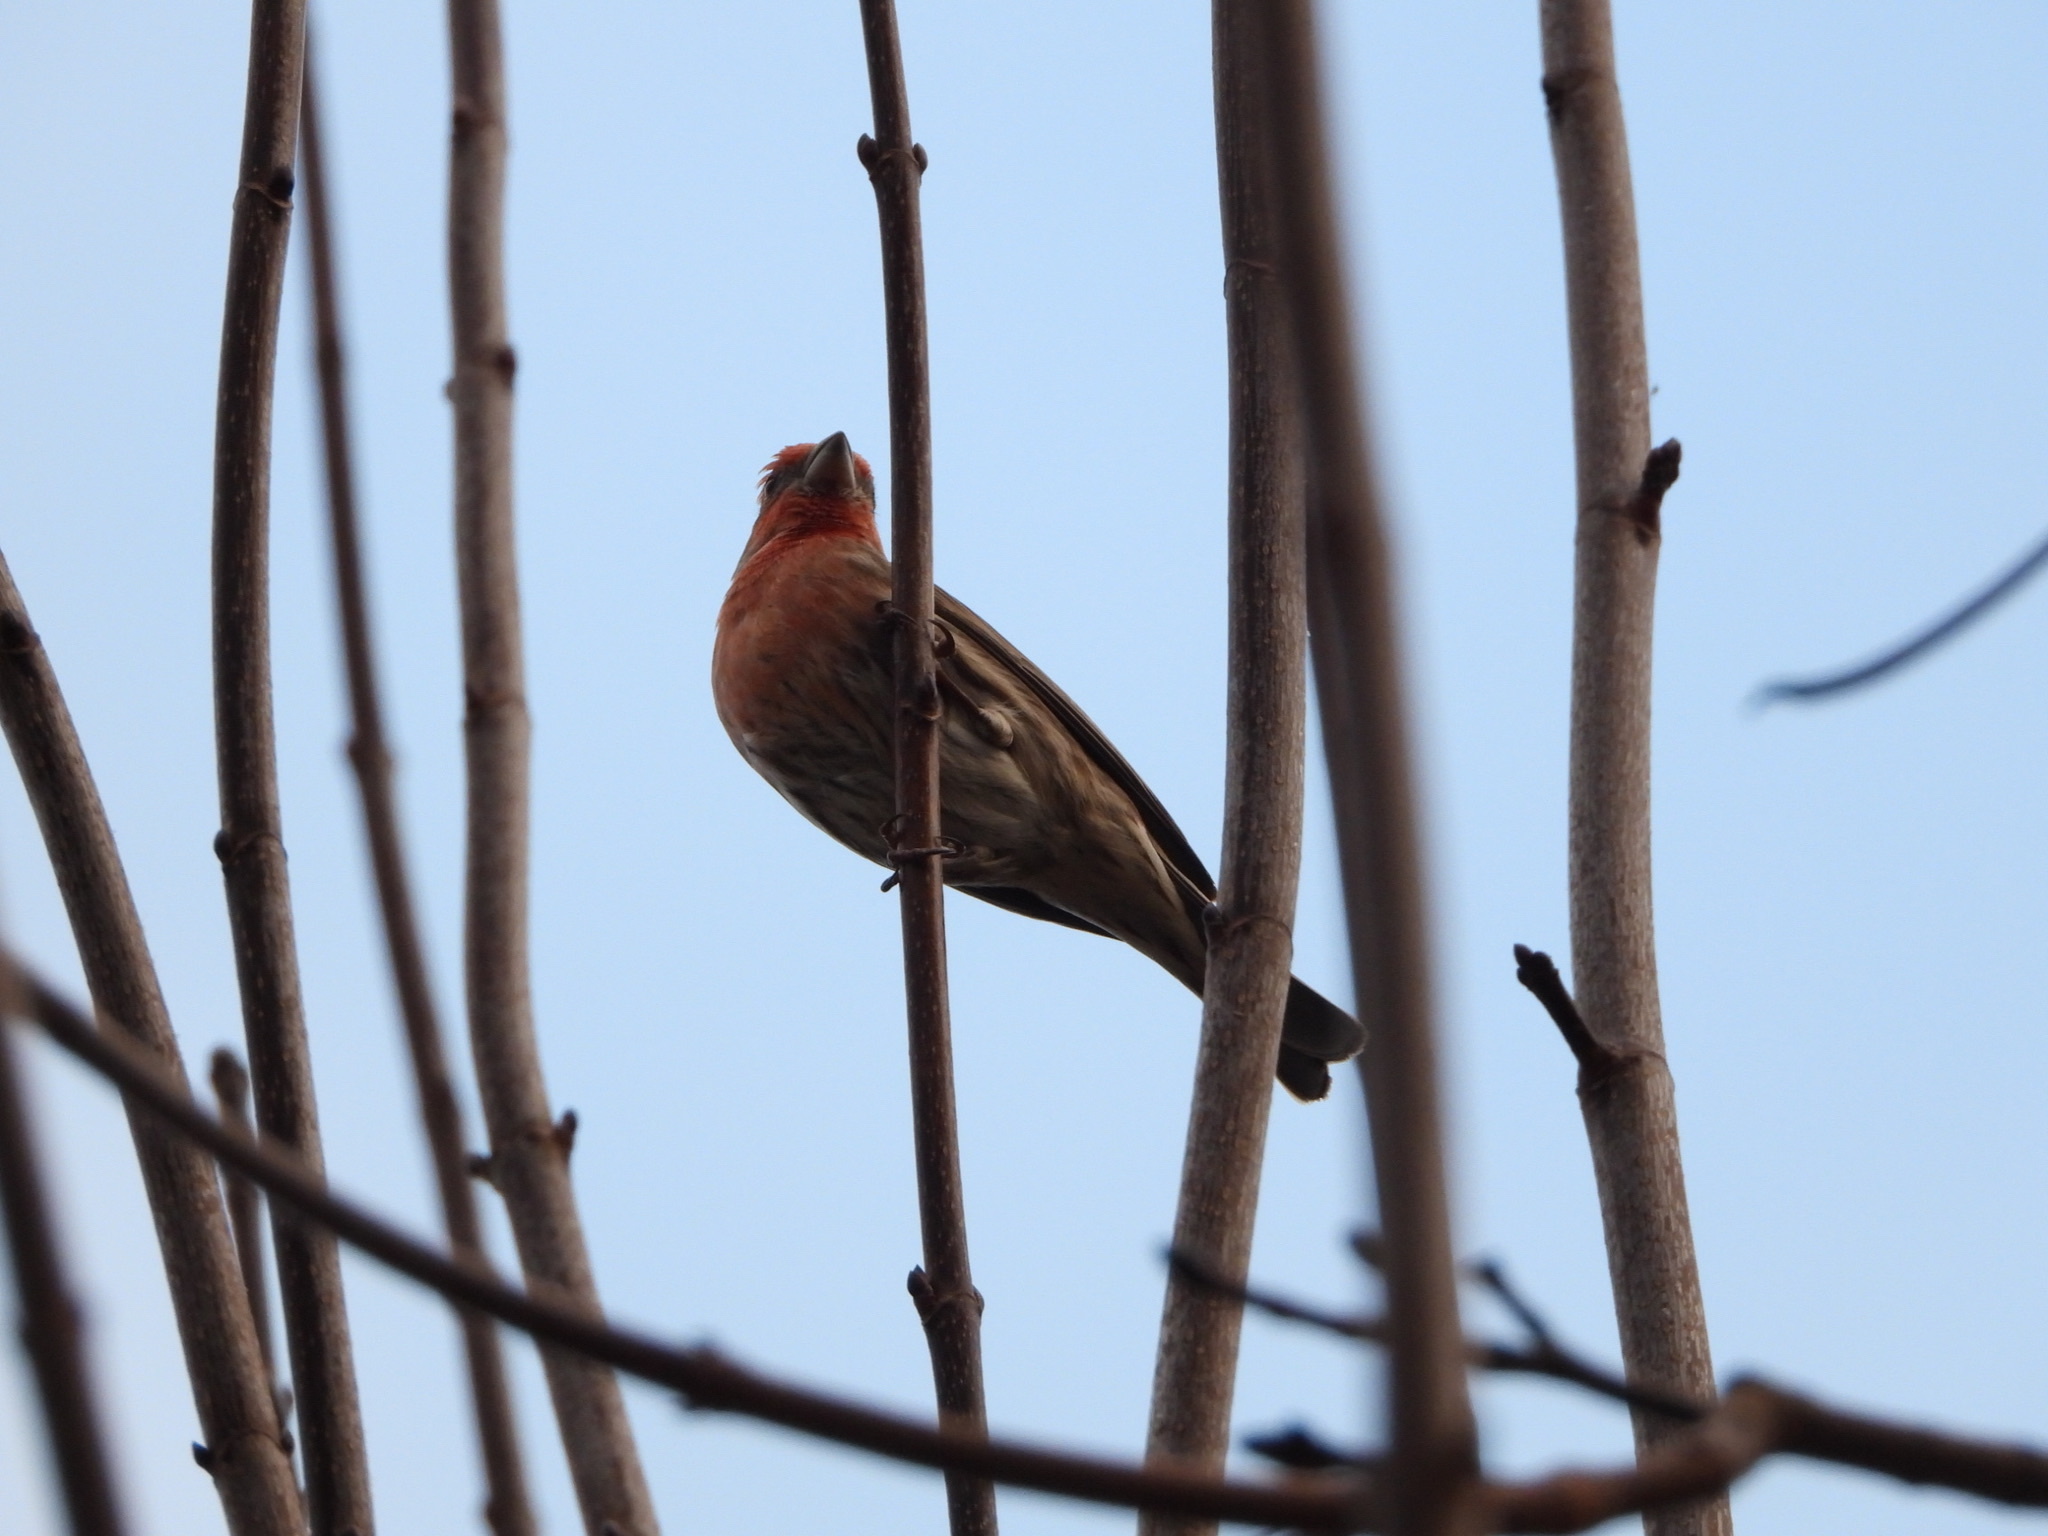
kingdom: Animalia
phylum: Chordata
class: Aves
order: Passeriformes
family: Fringillidae
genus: Haemorhous
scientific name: Haemorhous mexicanus
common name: House finch
